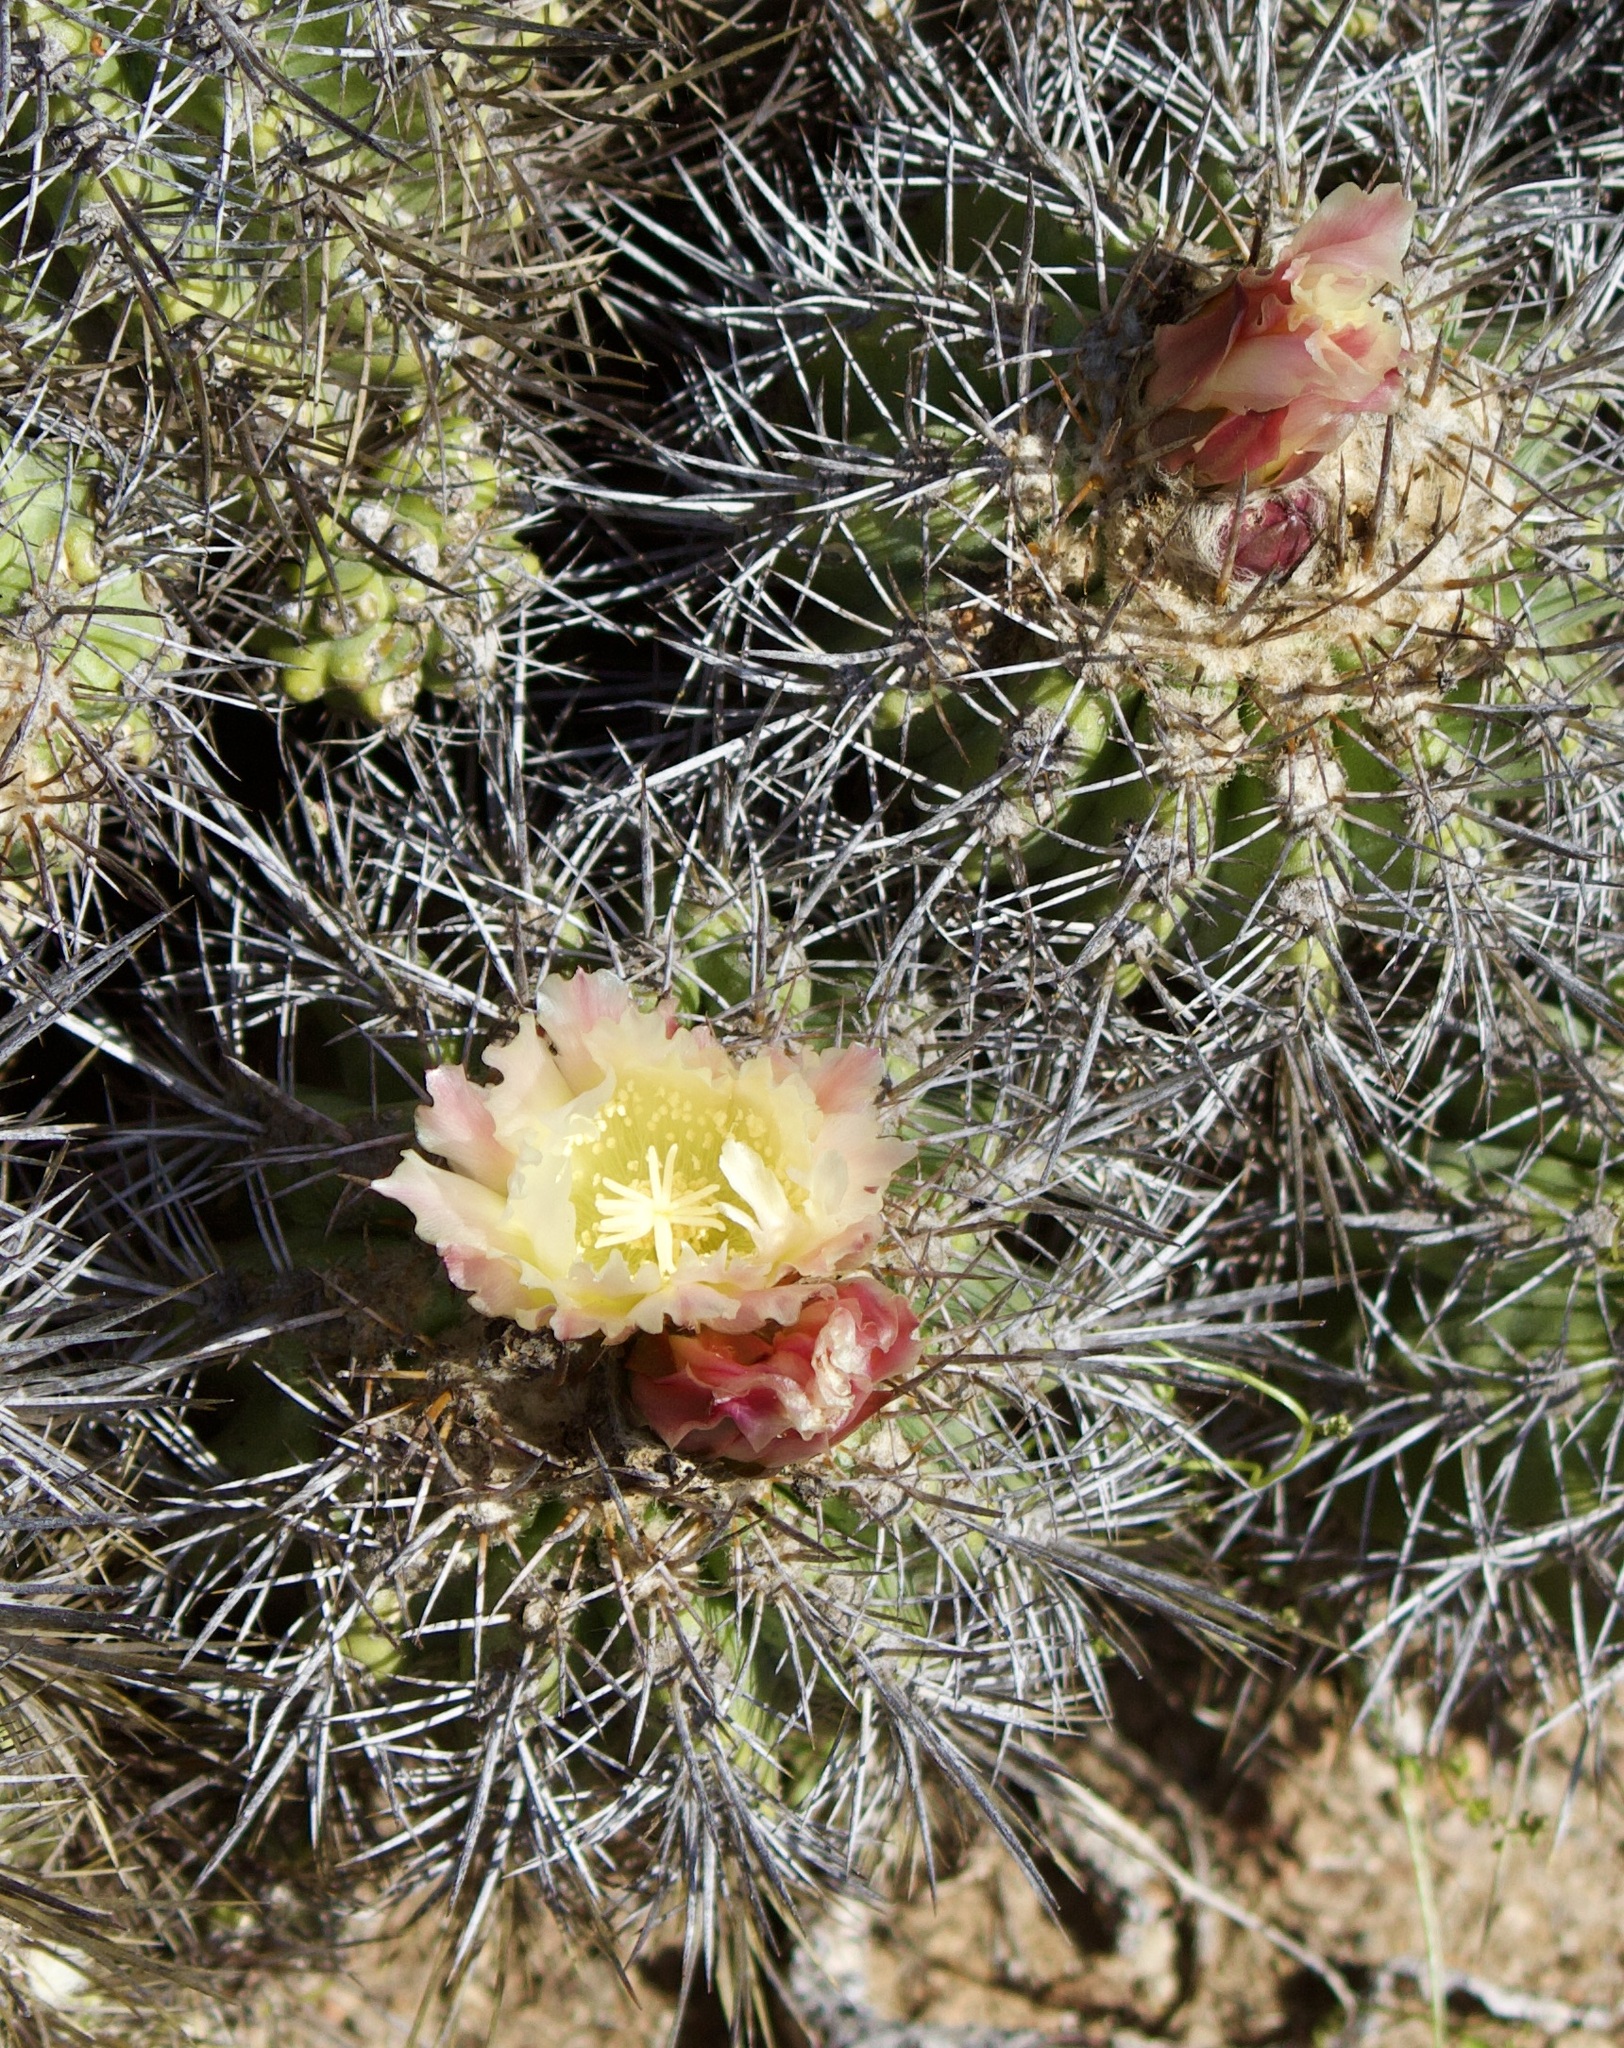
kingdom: Plantae
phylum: Tracheophyta
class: Magnoliopsida
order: Caryophyllales
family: Cactaceae
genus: Copiapoa
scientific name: Copiapoa coquimbana
